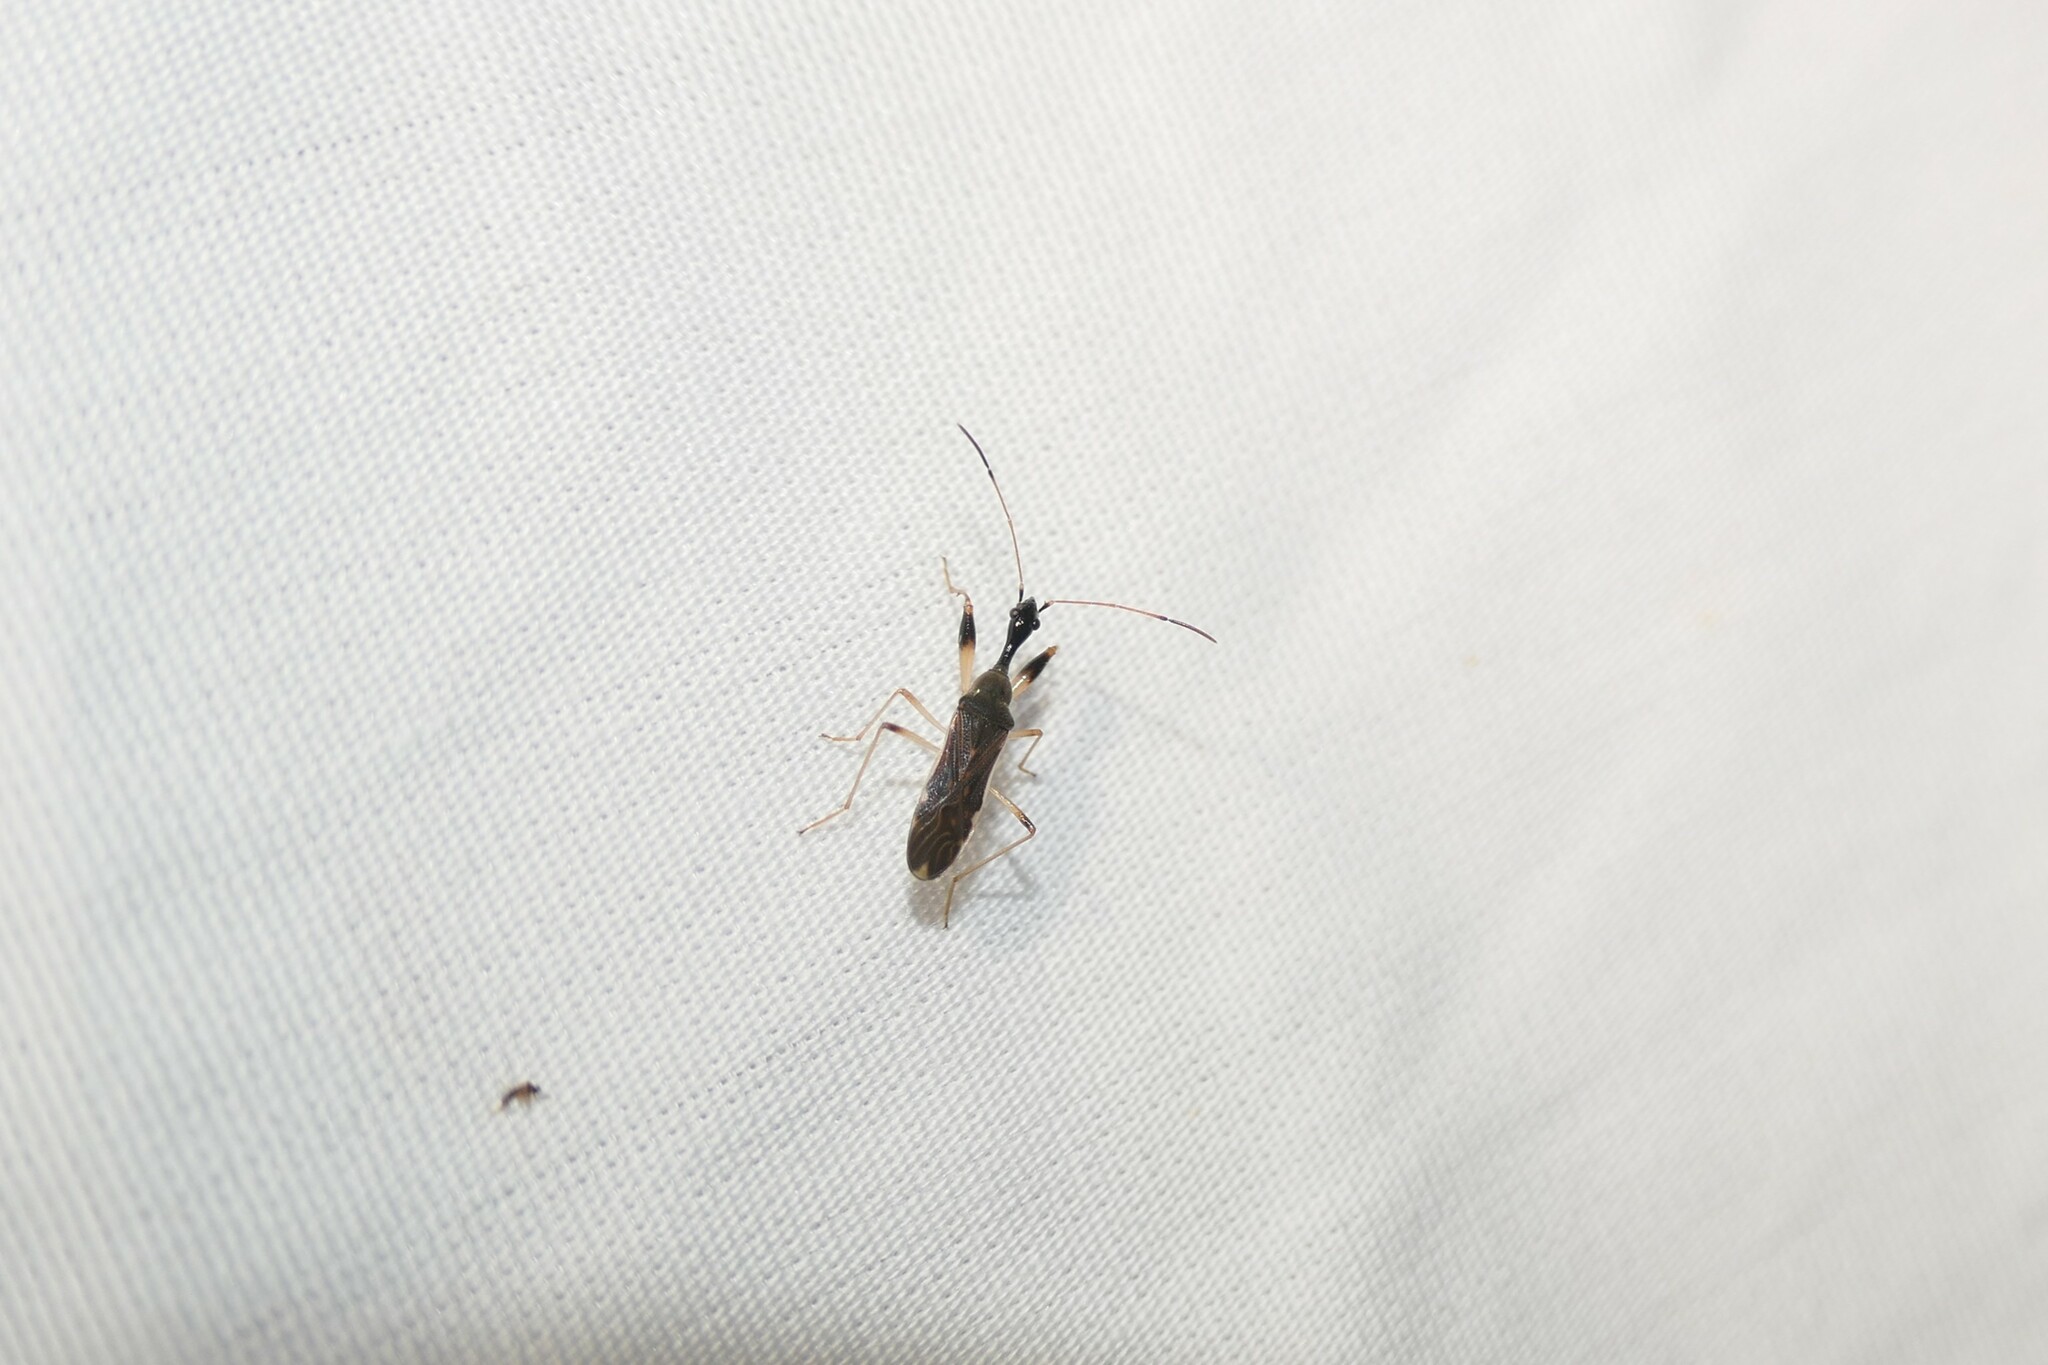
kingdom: Animalia
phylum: Arthropoda
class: Insecta
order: Hemiptera
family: Rhyparochromidae
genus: Myodocha
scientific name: Myodocha serripes
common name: Long-necked seed bug
